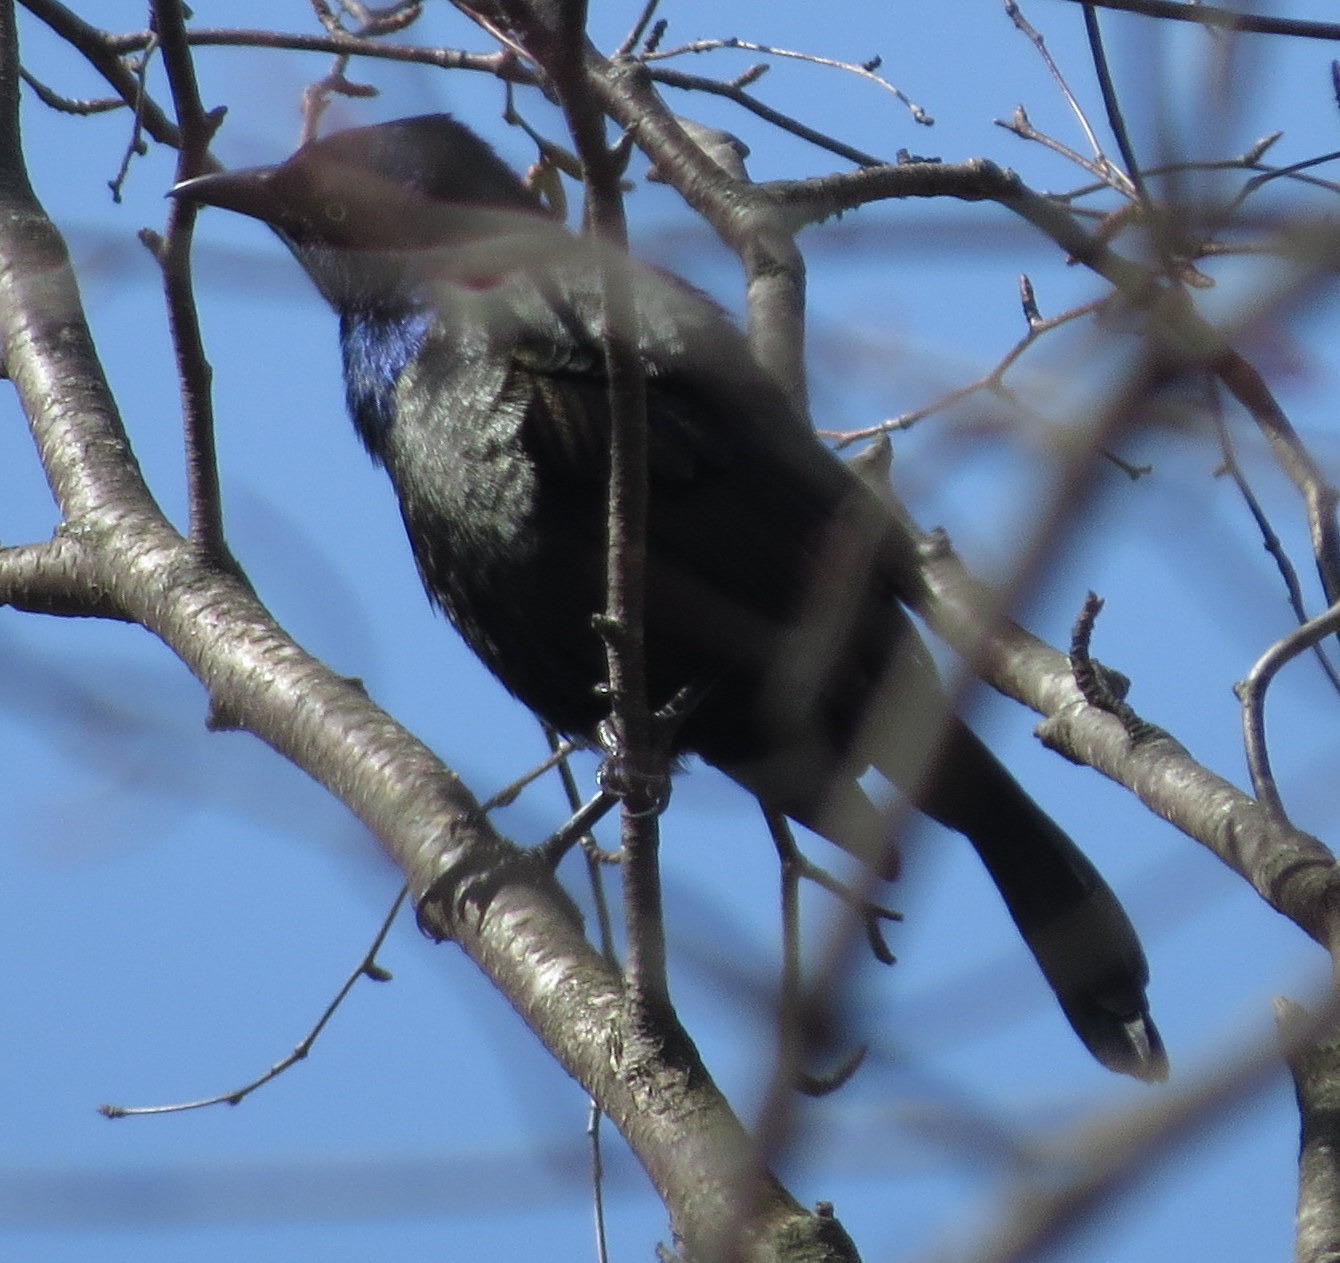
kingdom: Animalia
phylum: Chordata
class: Aves
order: Passeriformes
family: Icteridae
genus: Quiscalus
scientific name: Quiscalus quiscula
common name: Common grackle
